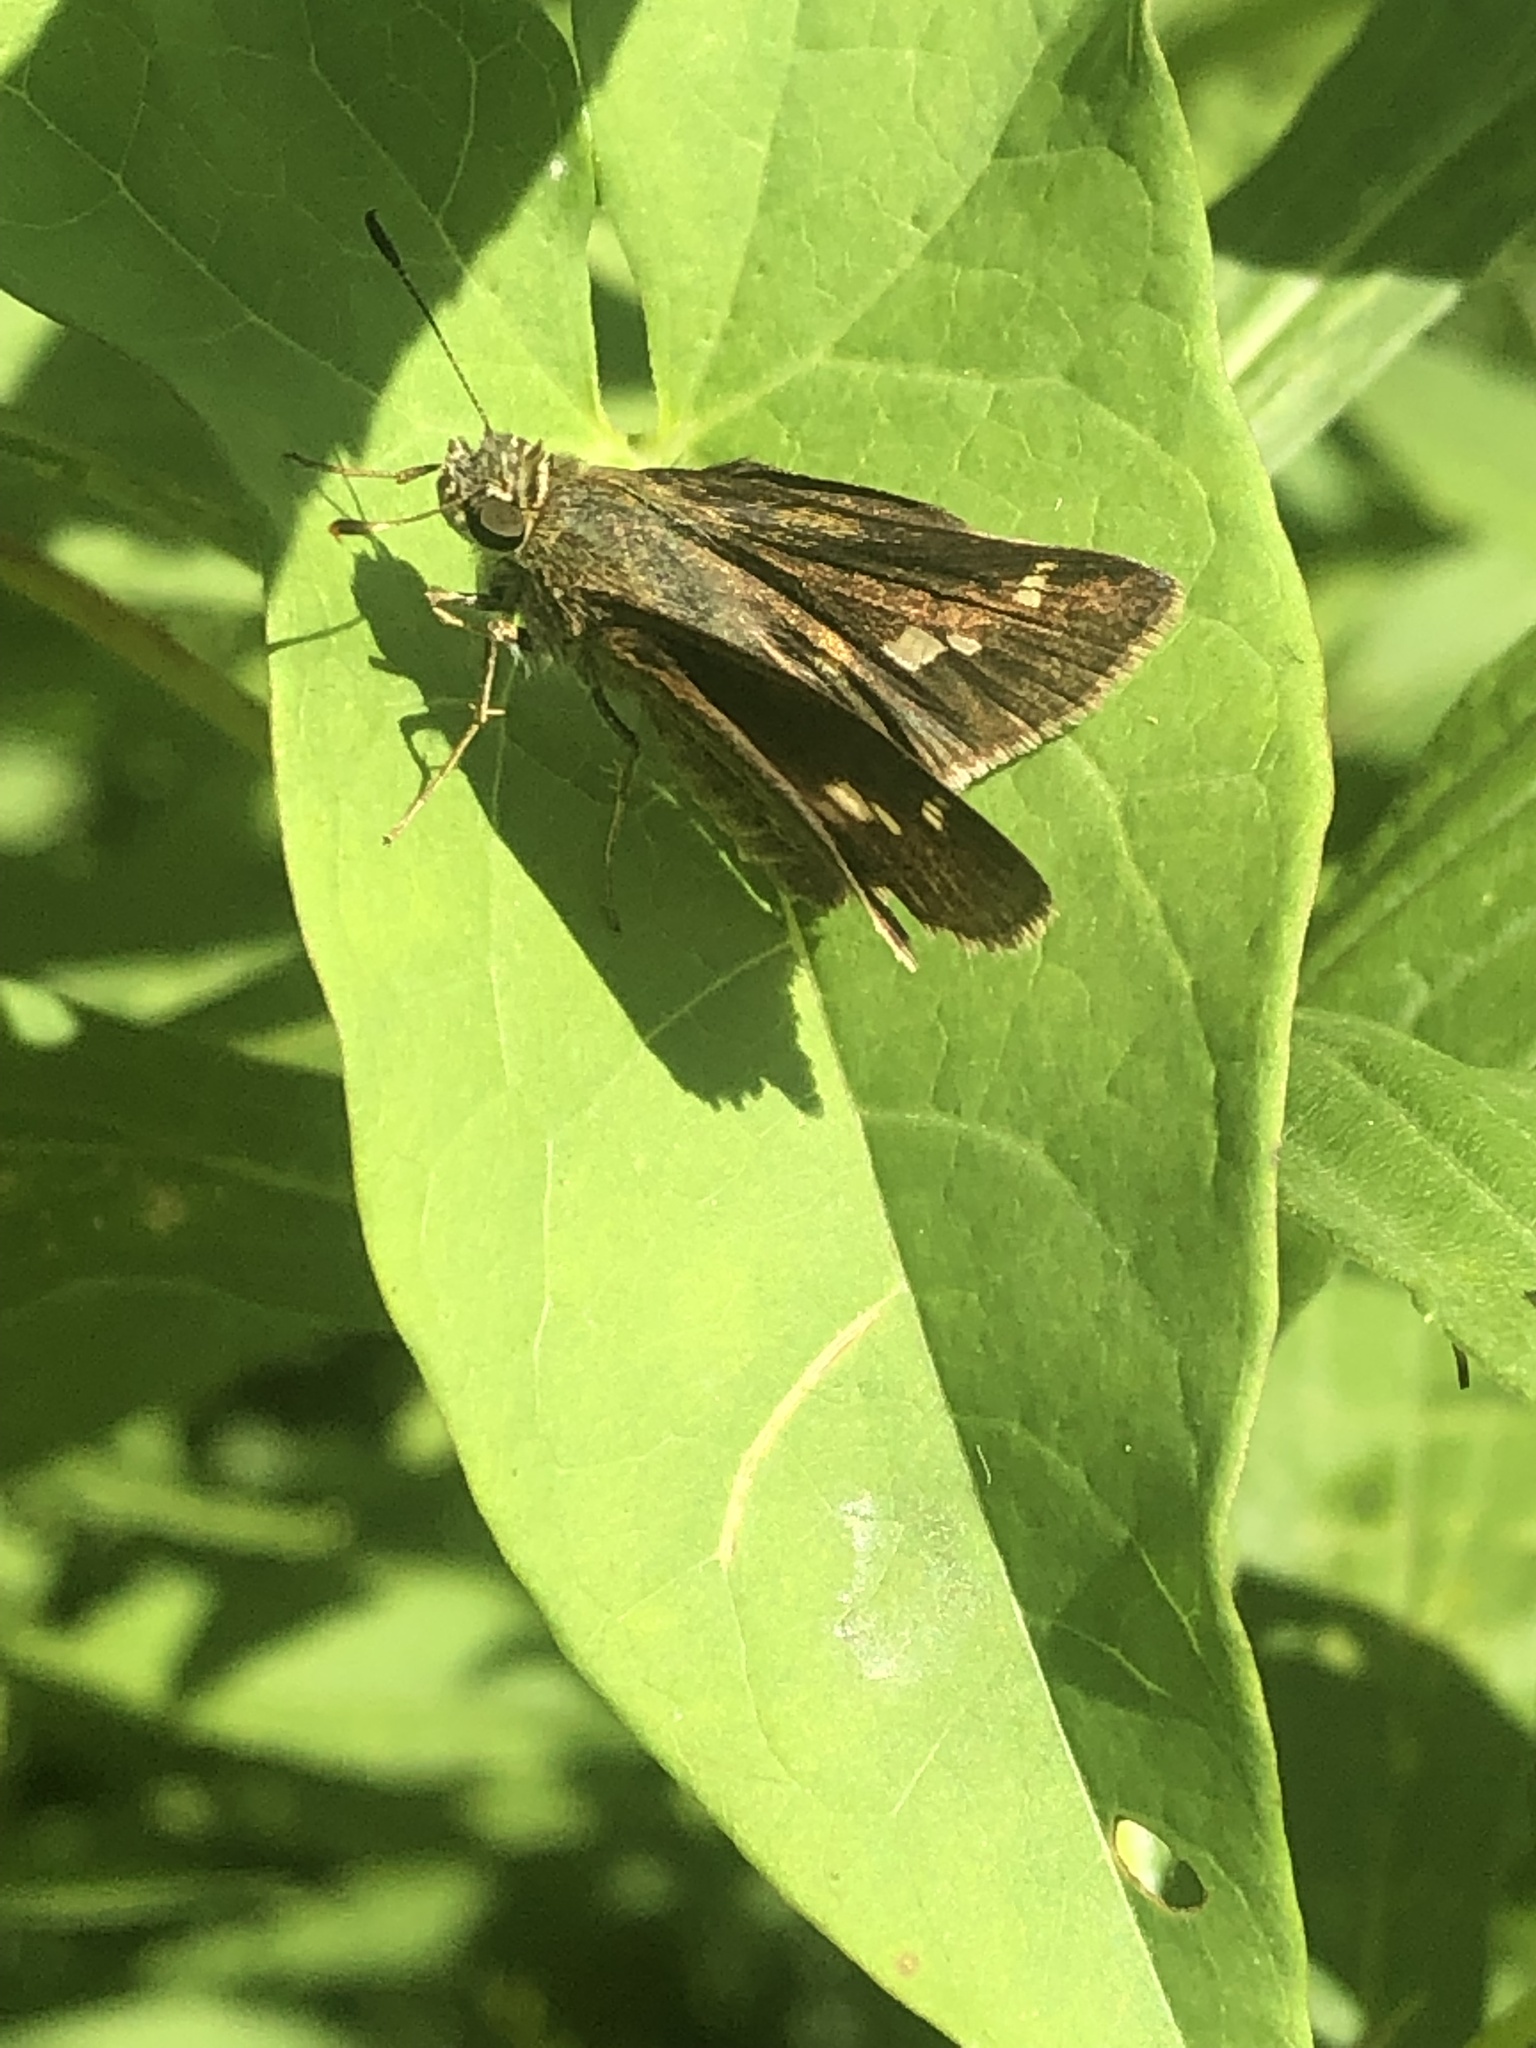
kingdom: Animalia
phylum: Arthropoda
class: Insecta
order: Lepidoptera
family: Hesperiidae
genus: Vernia
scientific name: Vernia verna
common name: Little glassywing
